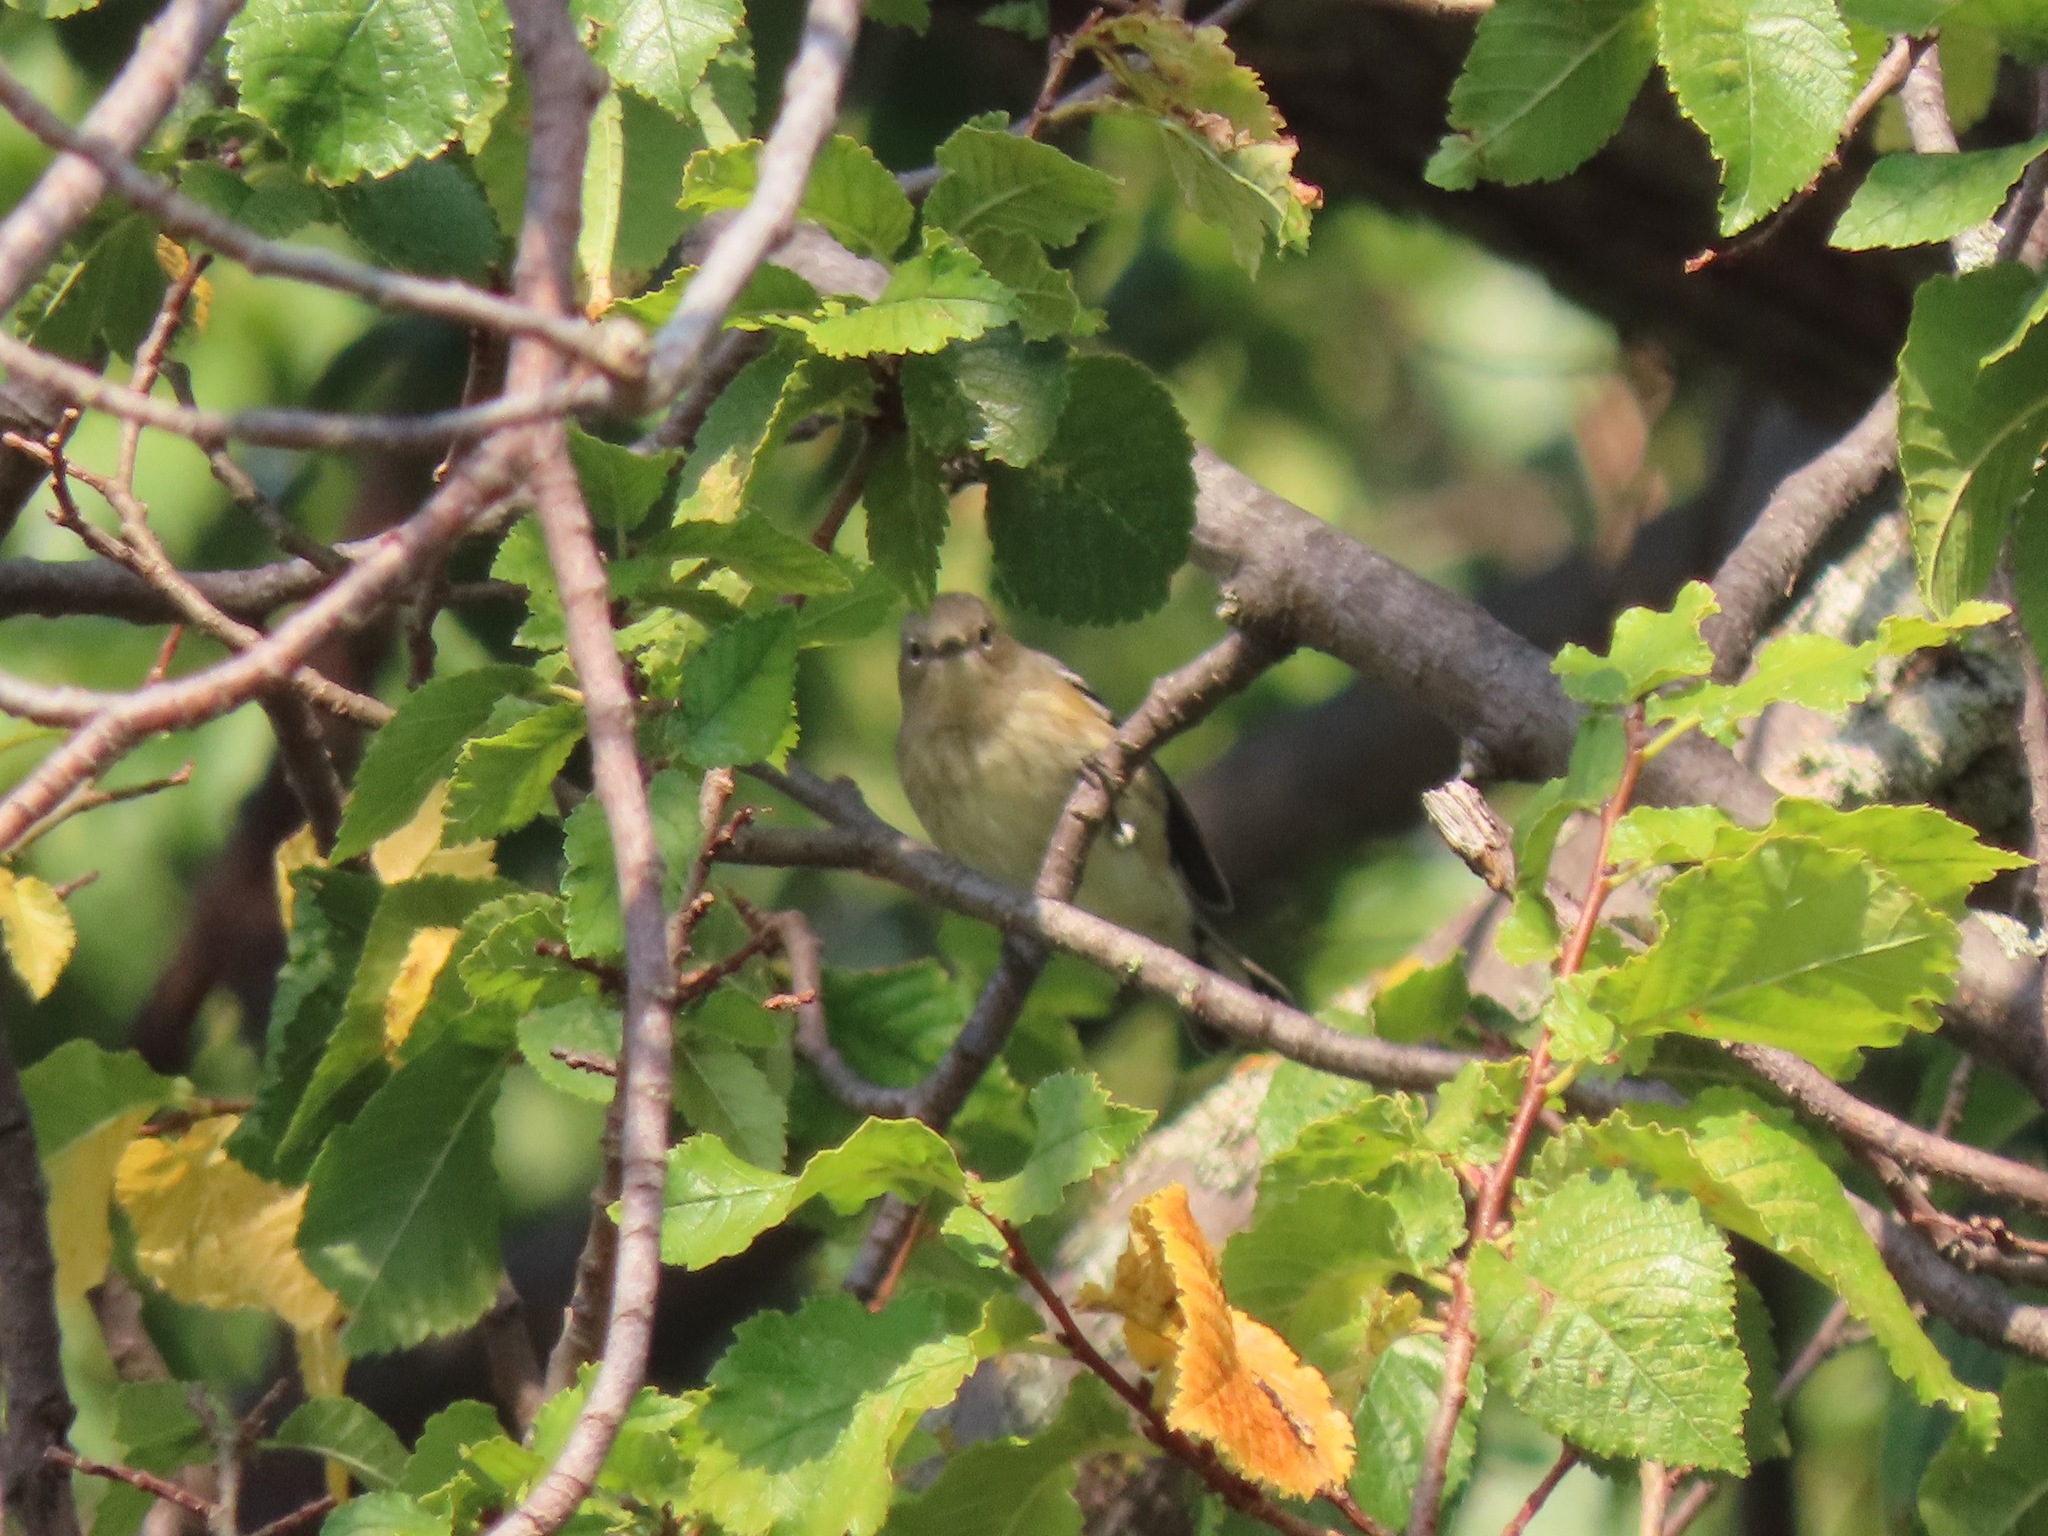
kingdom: Animalia
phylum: Chordata
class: Aves
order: Passeriformes
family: Parulidae
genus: Setophaga
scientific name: Setophaga coronata
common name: Myrtle warbler
